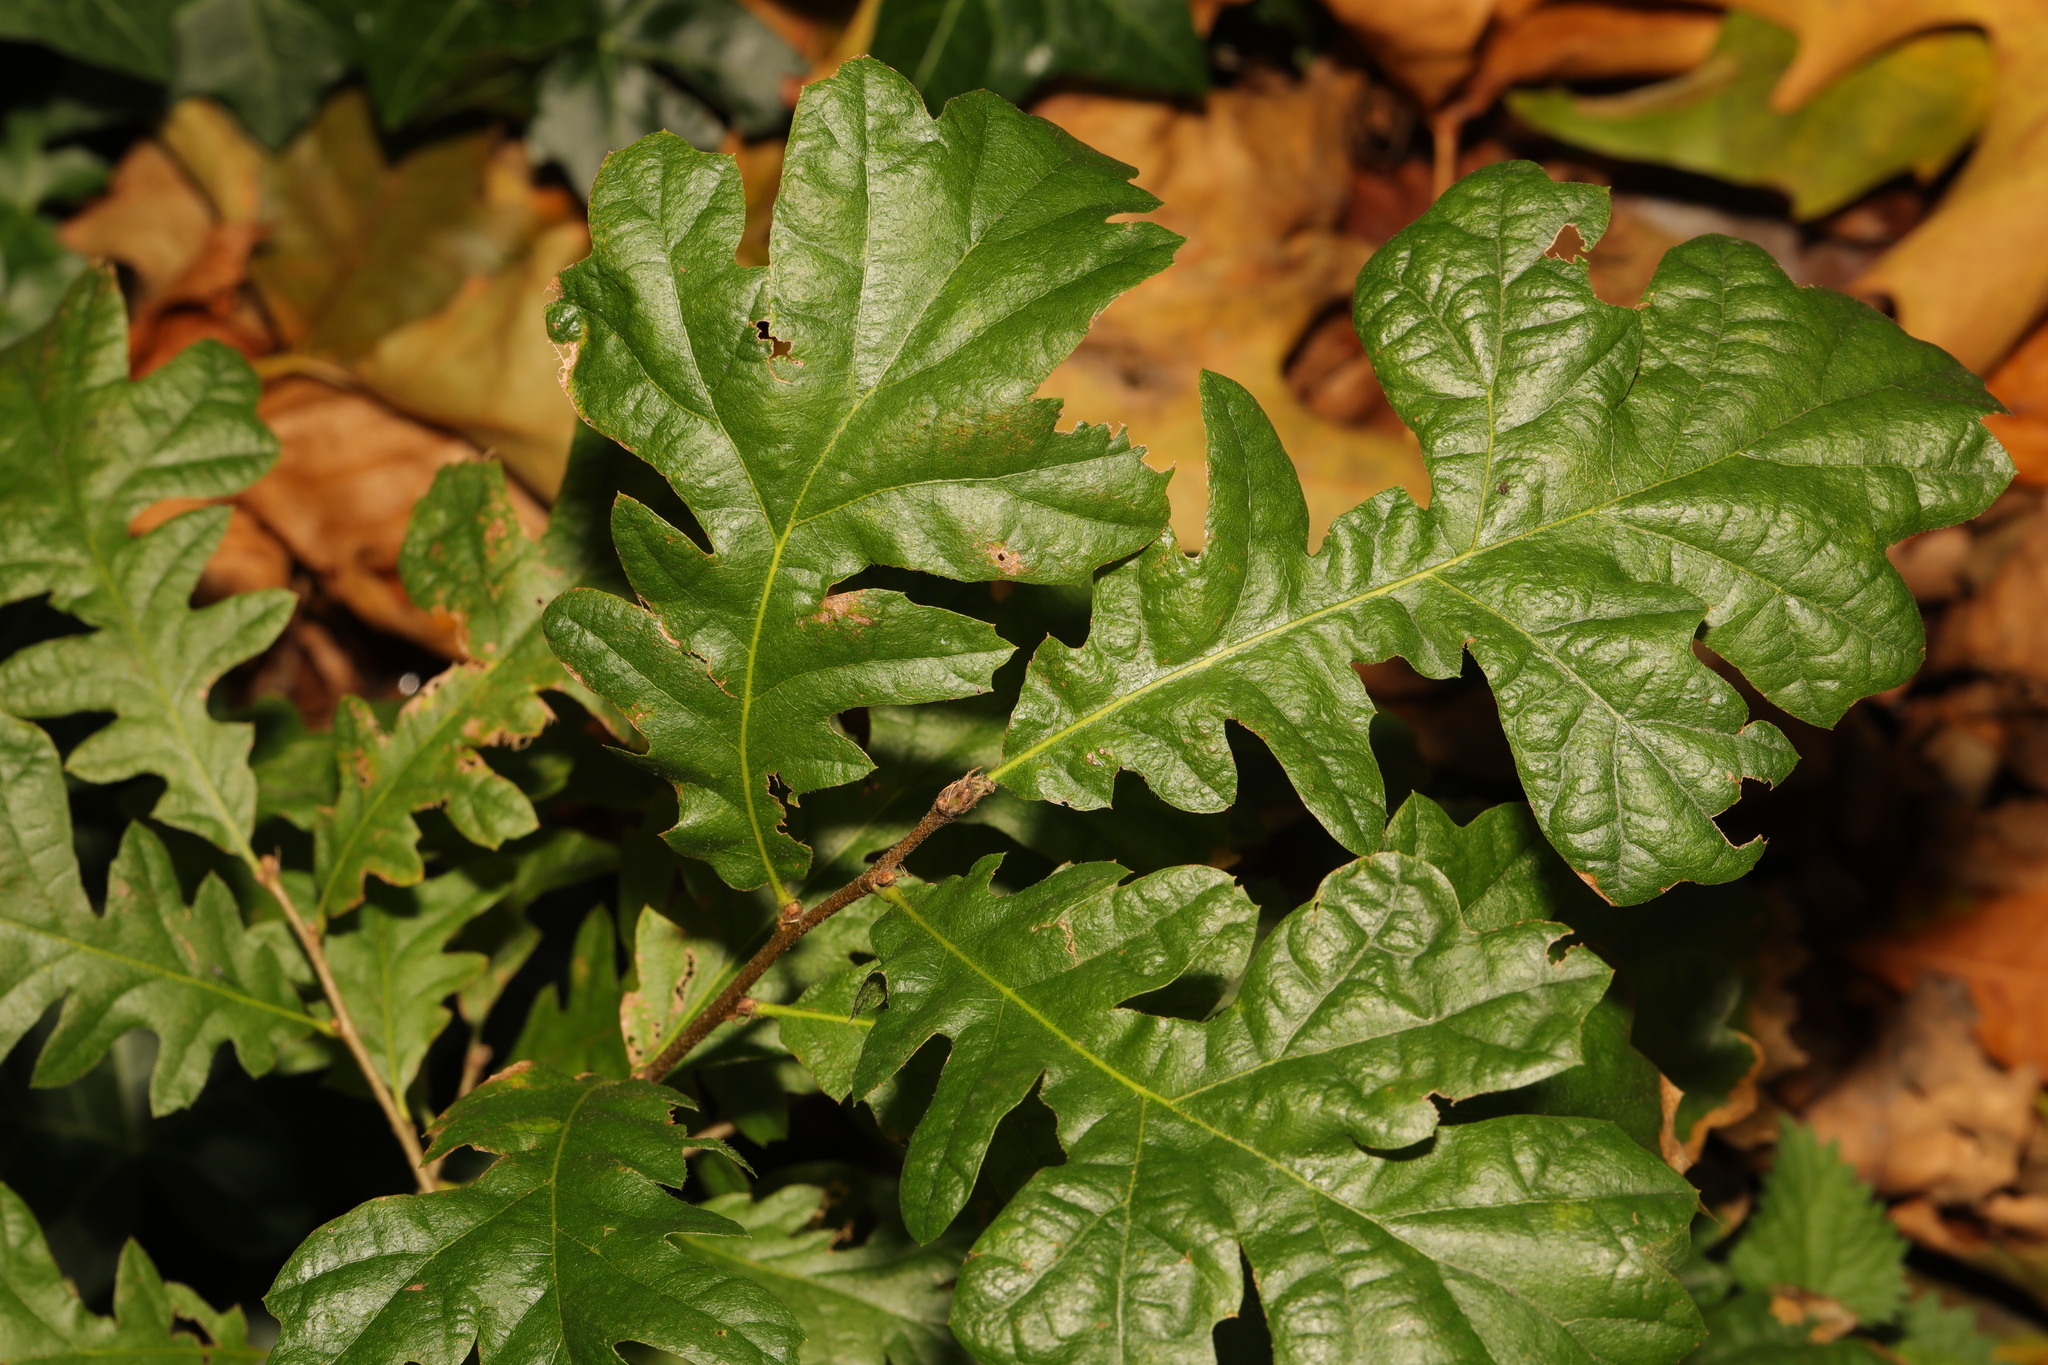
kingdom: Plantae
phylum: Tracheophyta
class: Magnoliopsida
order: Fagales
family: Fagaceae
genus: Quercus
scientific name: Quercus cerris
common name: Turkey oak
